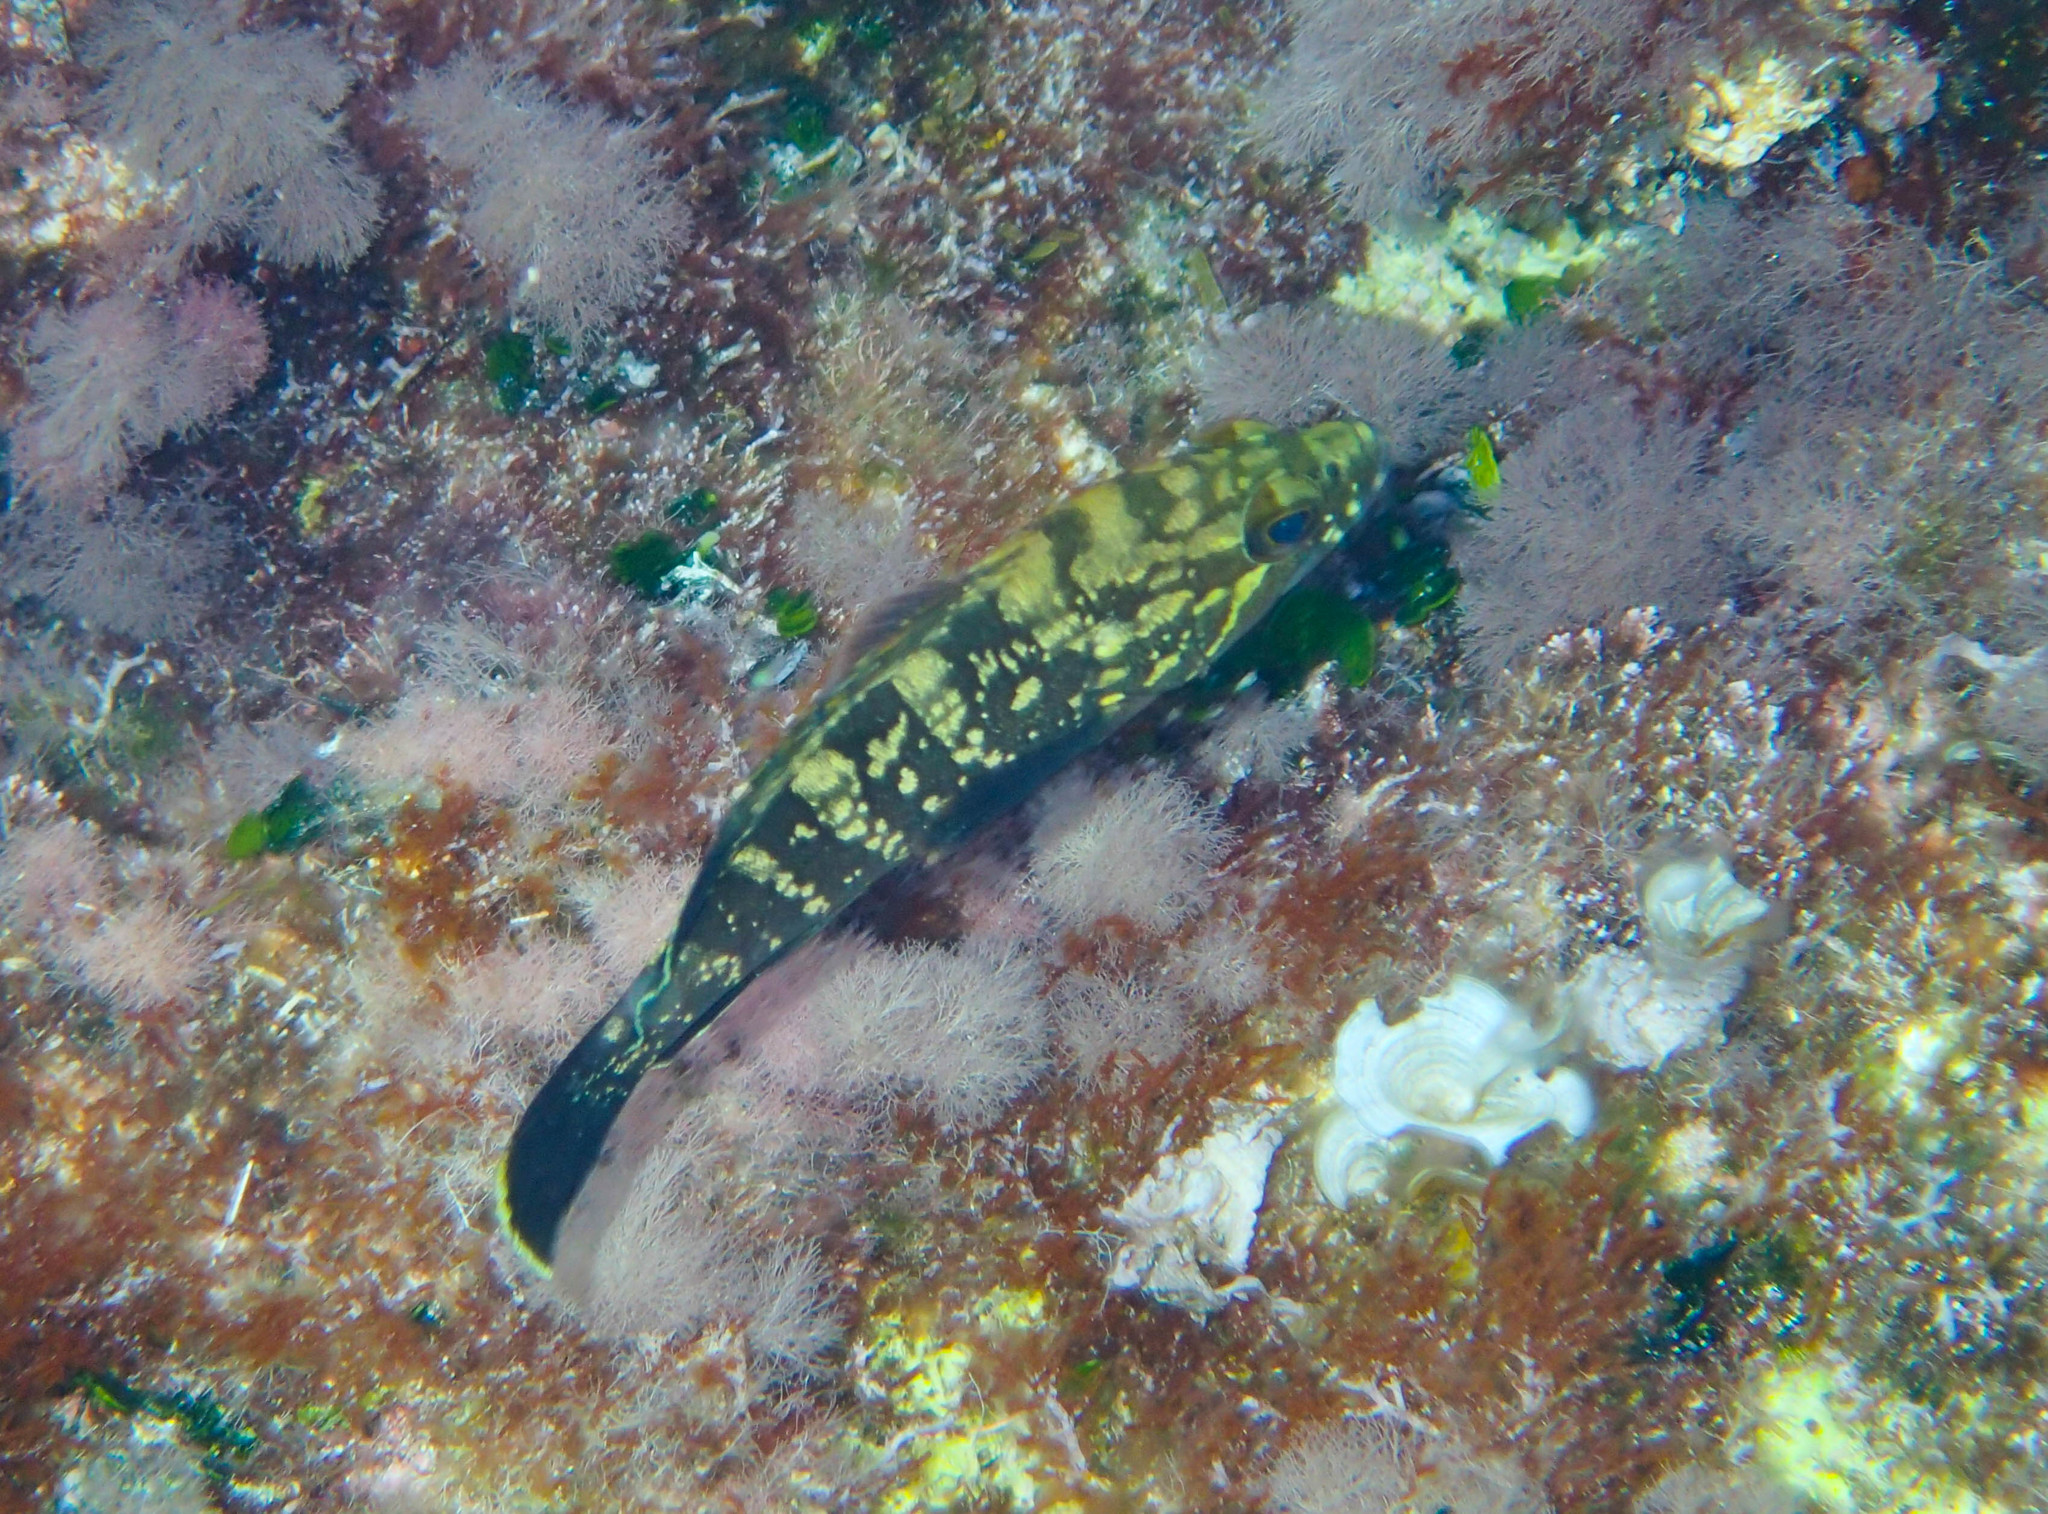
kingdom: Animalia
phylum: Chordata
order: Perciformes
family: Serranidae
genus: Epinephelus
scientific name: Epinephelus marginatus
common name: Dusky grouper
